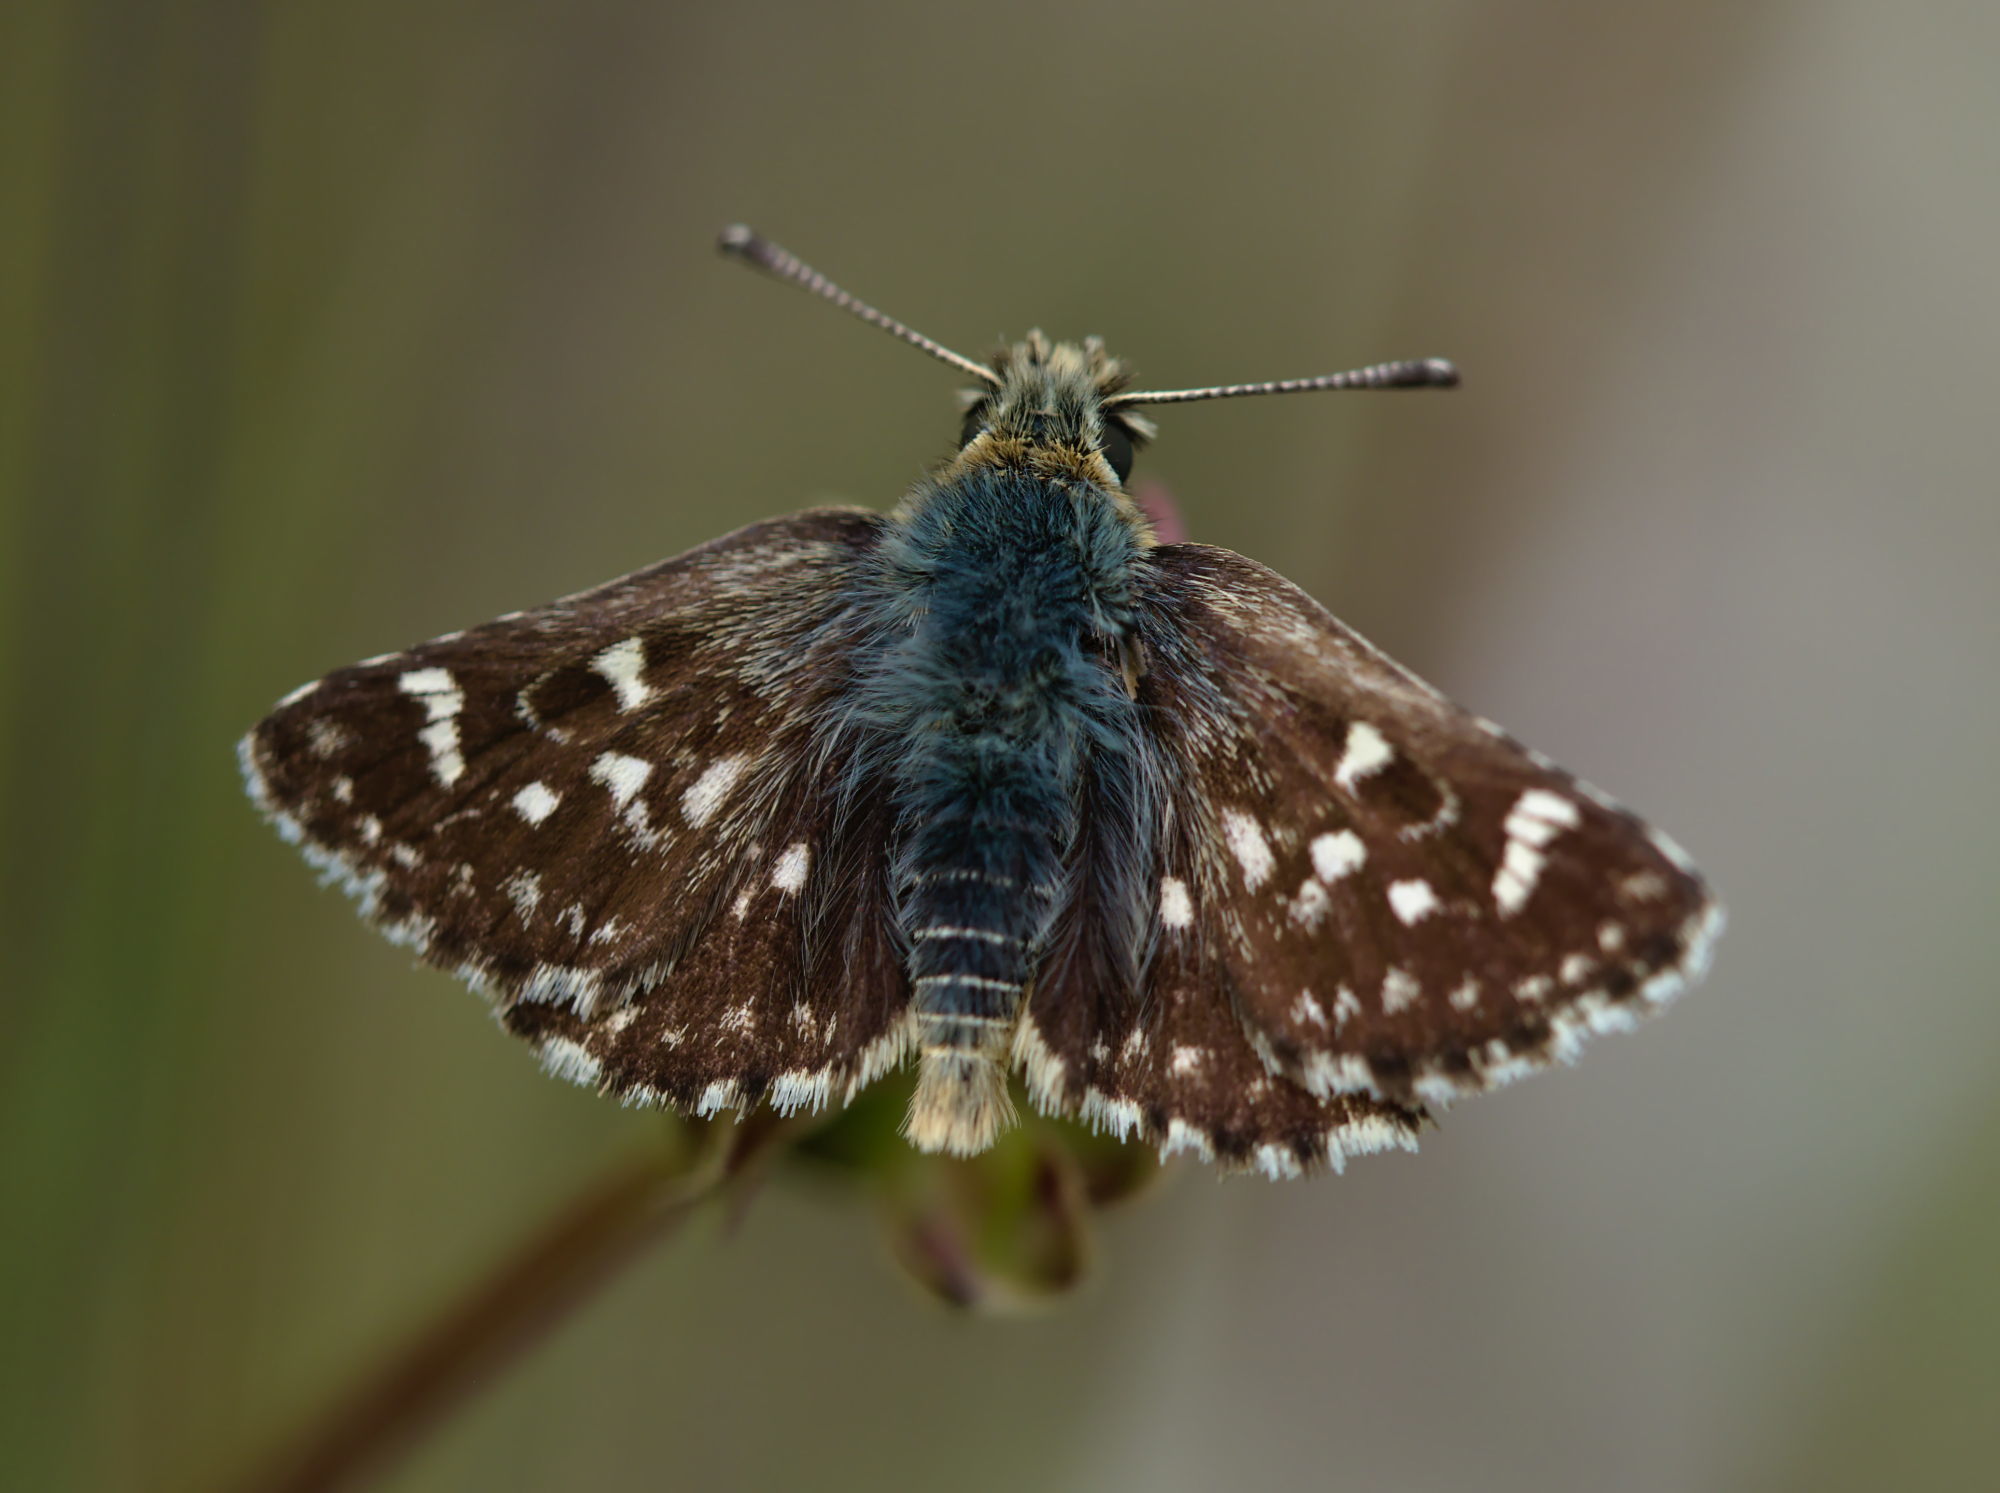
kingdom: Animalia
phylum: Arthropoda
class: Insecta
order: Lepidoptera
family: Hesperiidae
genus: Spialia
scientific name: Spialia sertorius
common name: Red underwing skipper
